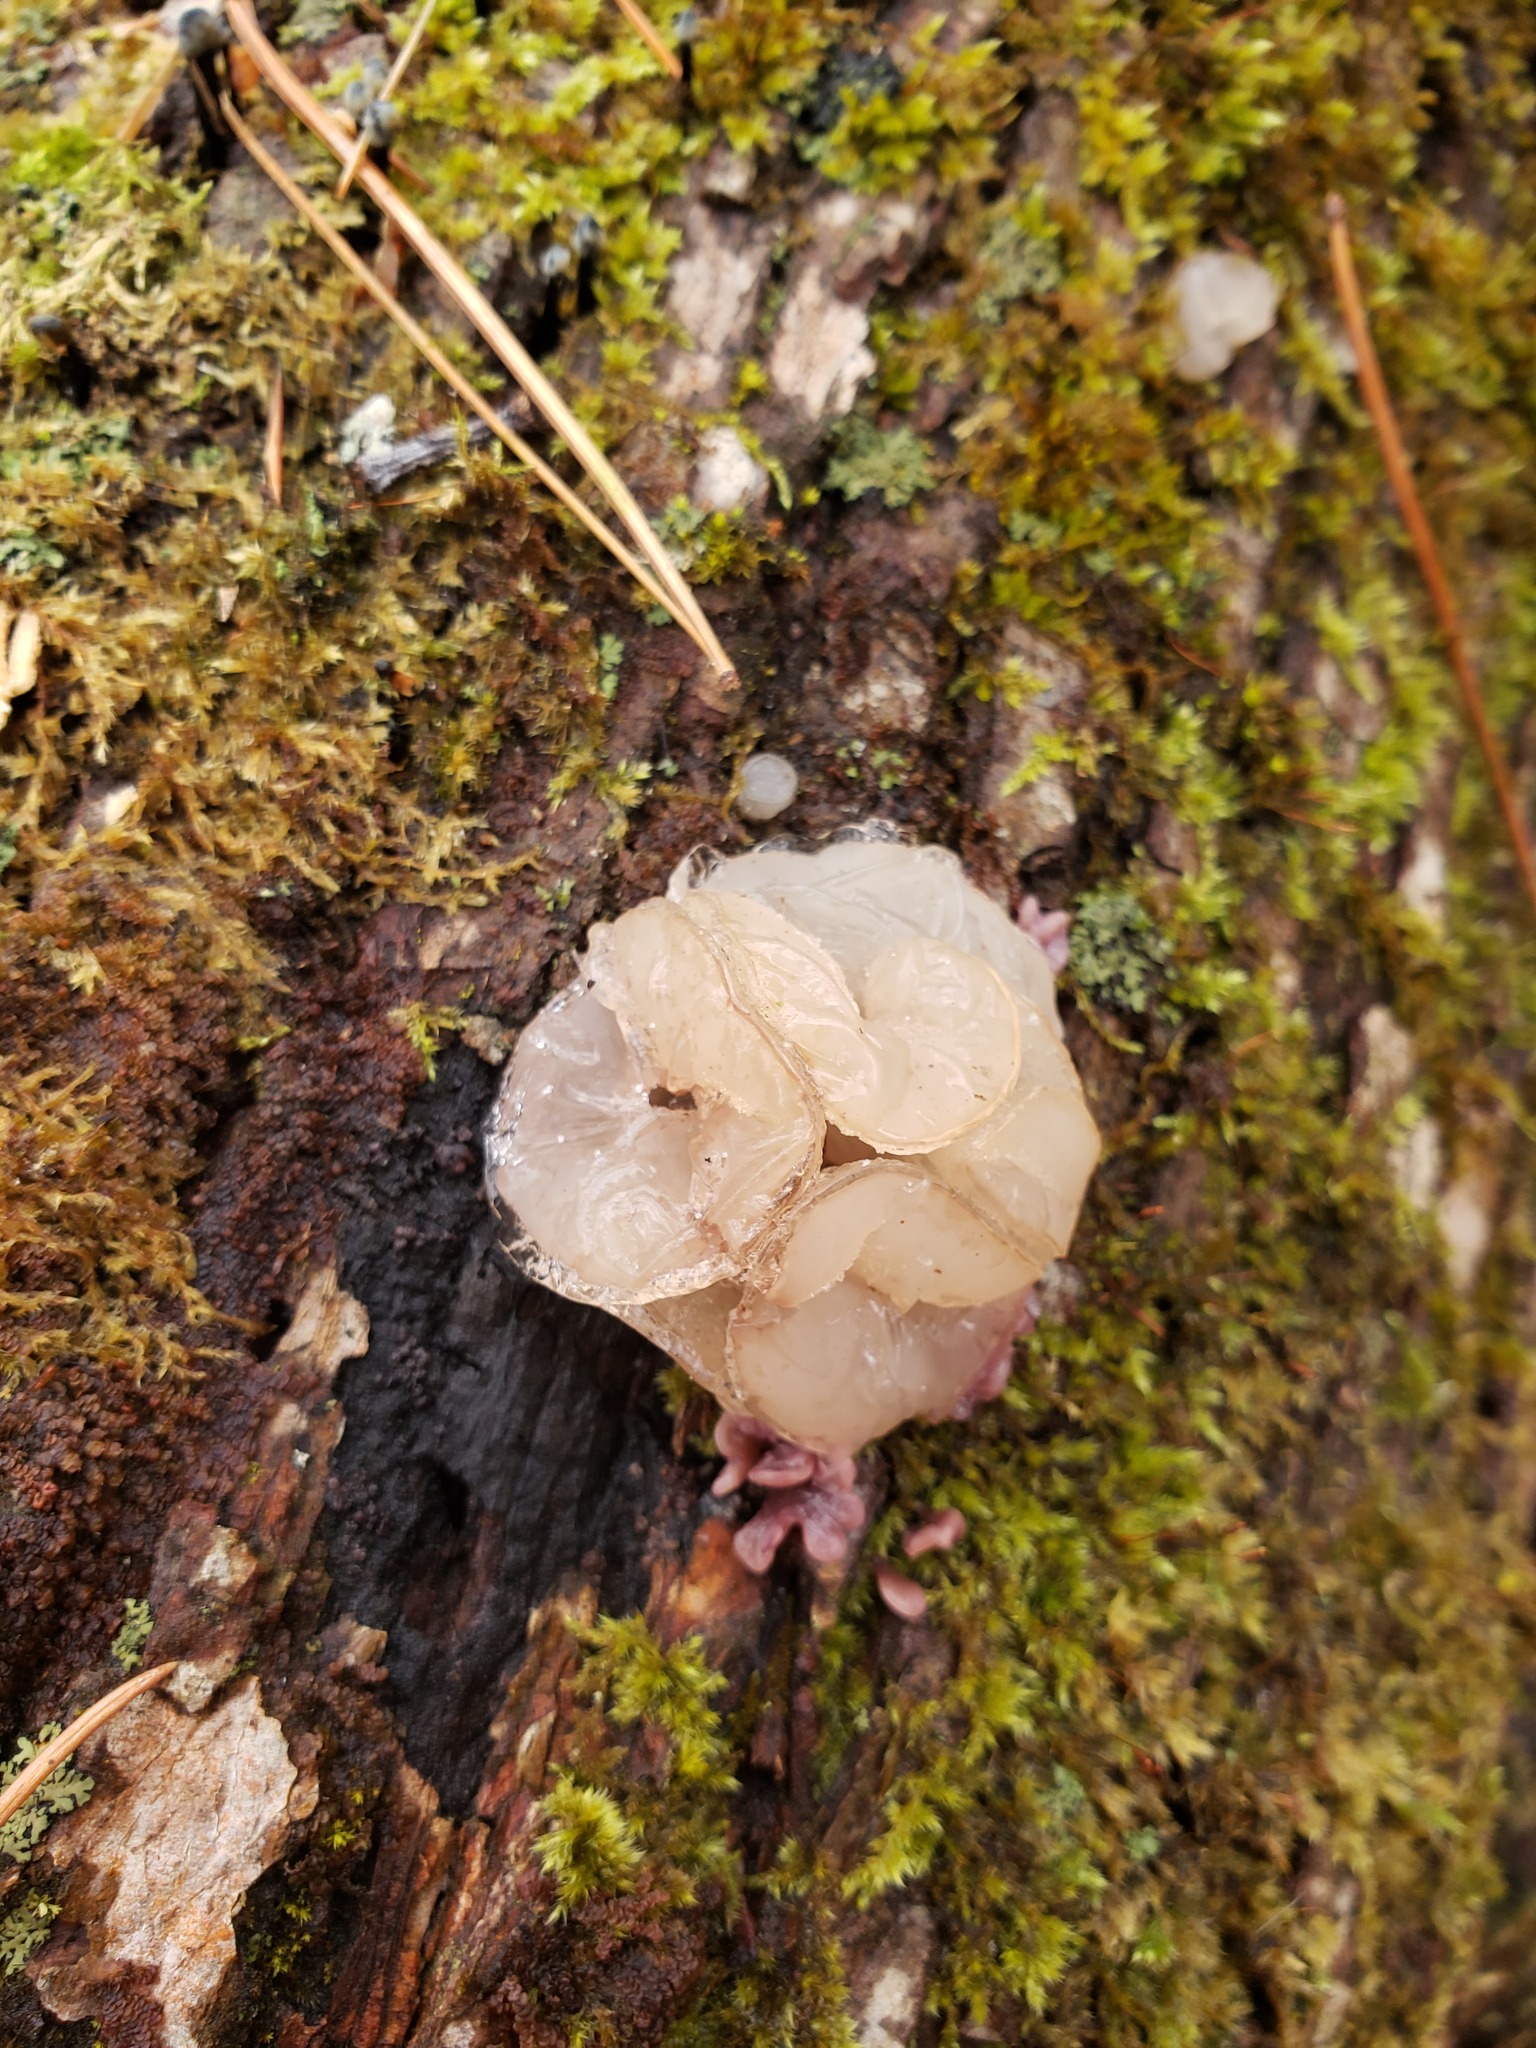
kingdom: Fungi
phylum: Ascomycota
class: Leotiomycetes
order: Helotiales
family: Gelatinodiscaceae
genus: Neobulgaria
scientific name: Neobulgaria pura
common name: Beech jelly-disc
